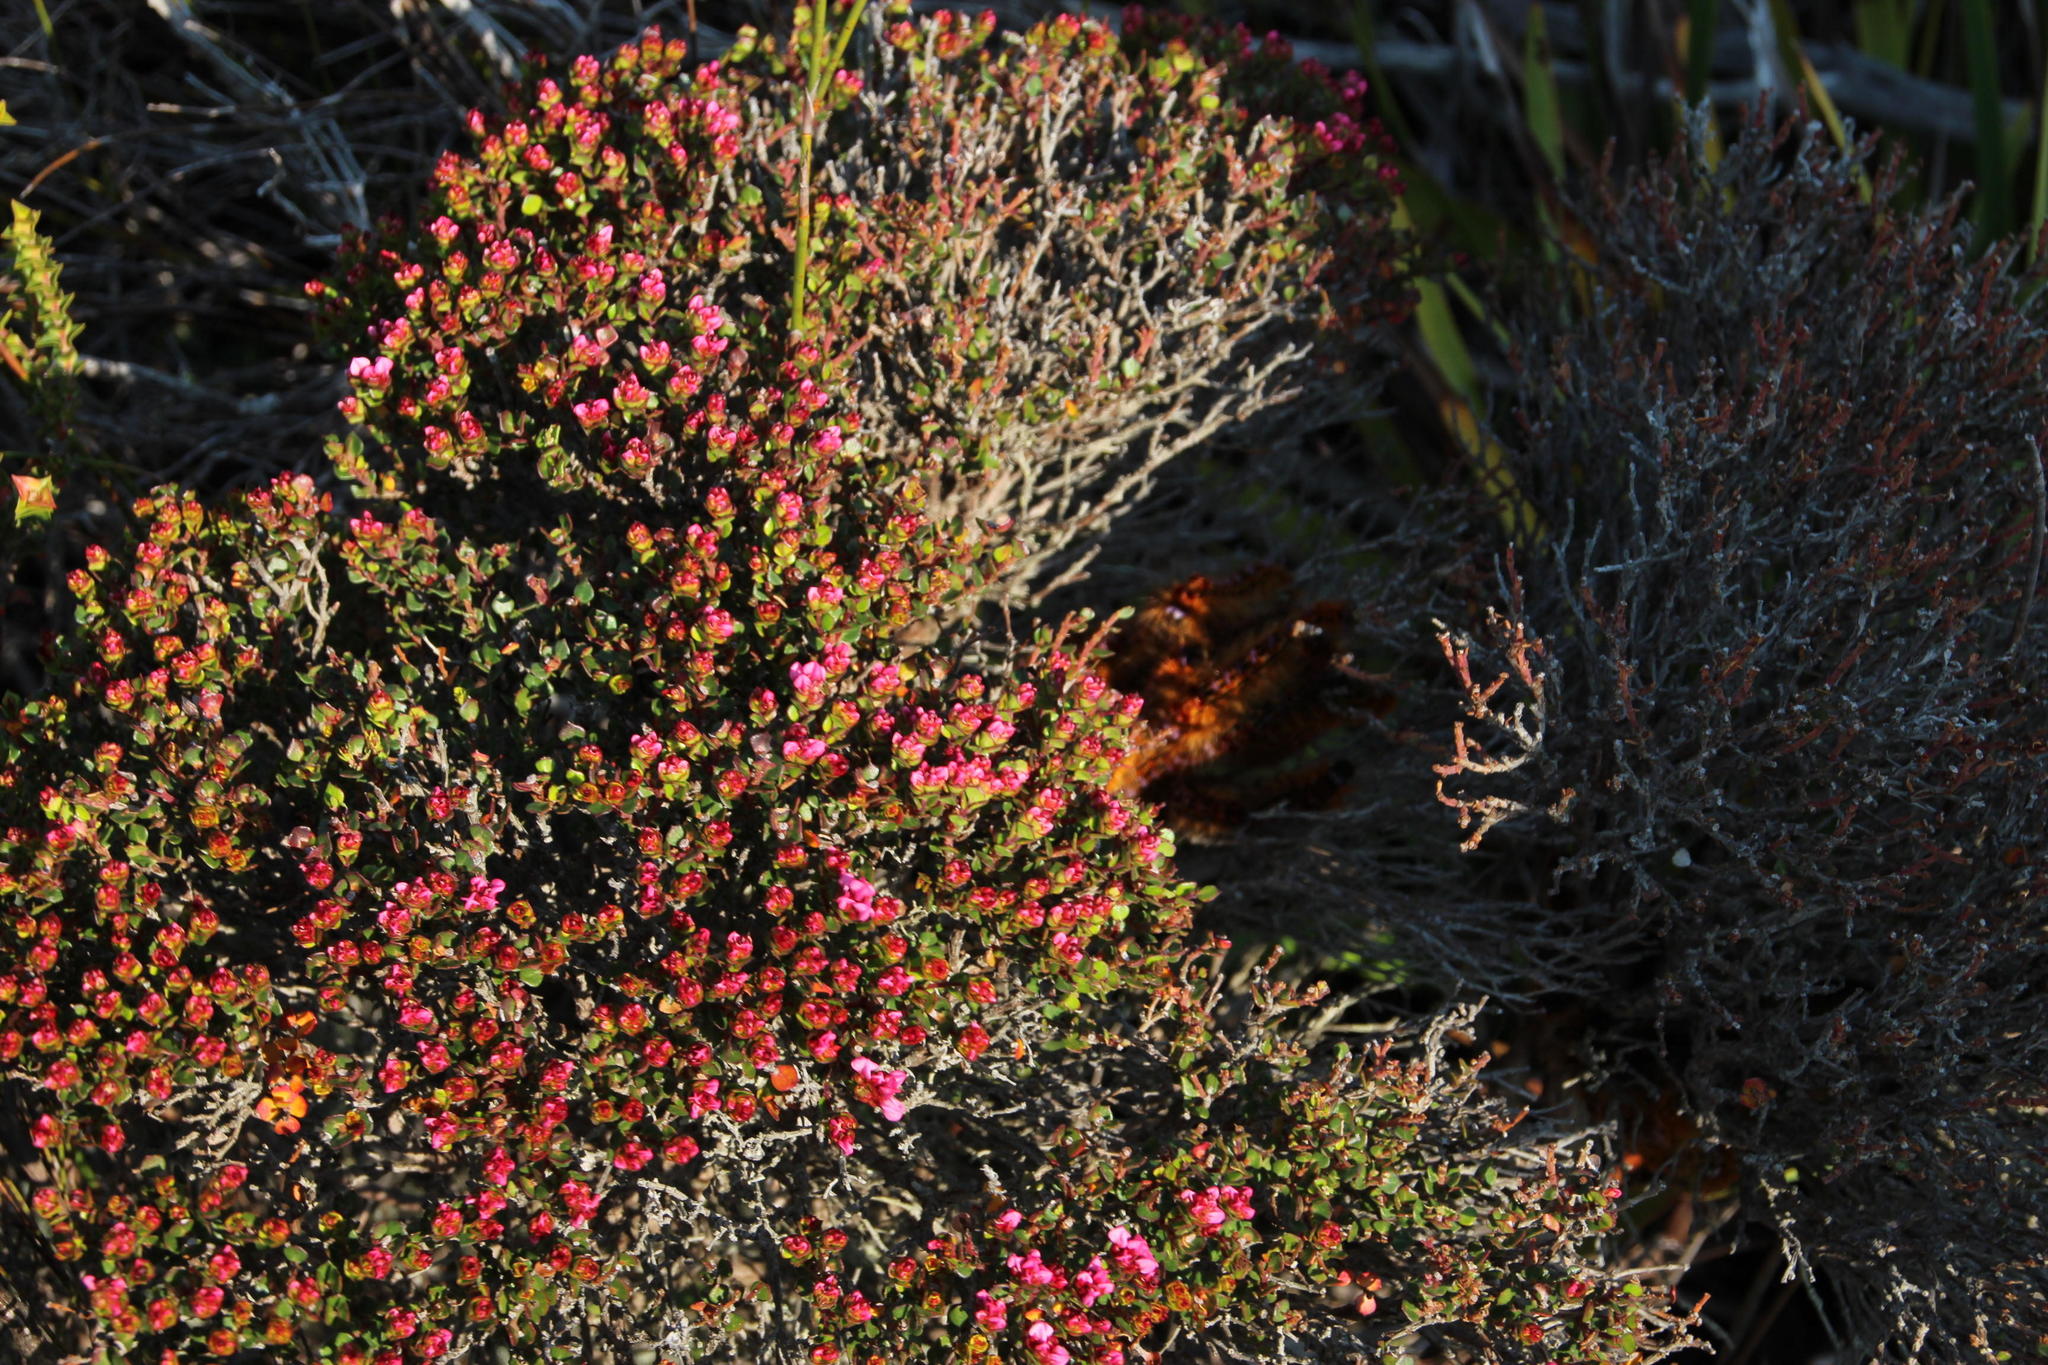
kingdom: Animalia
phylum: Arthropoda
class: Insecta
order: Lepidoptera
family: Lasiocampidae
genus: Eutricha
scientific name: Eutricha bifascia
